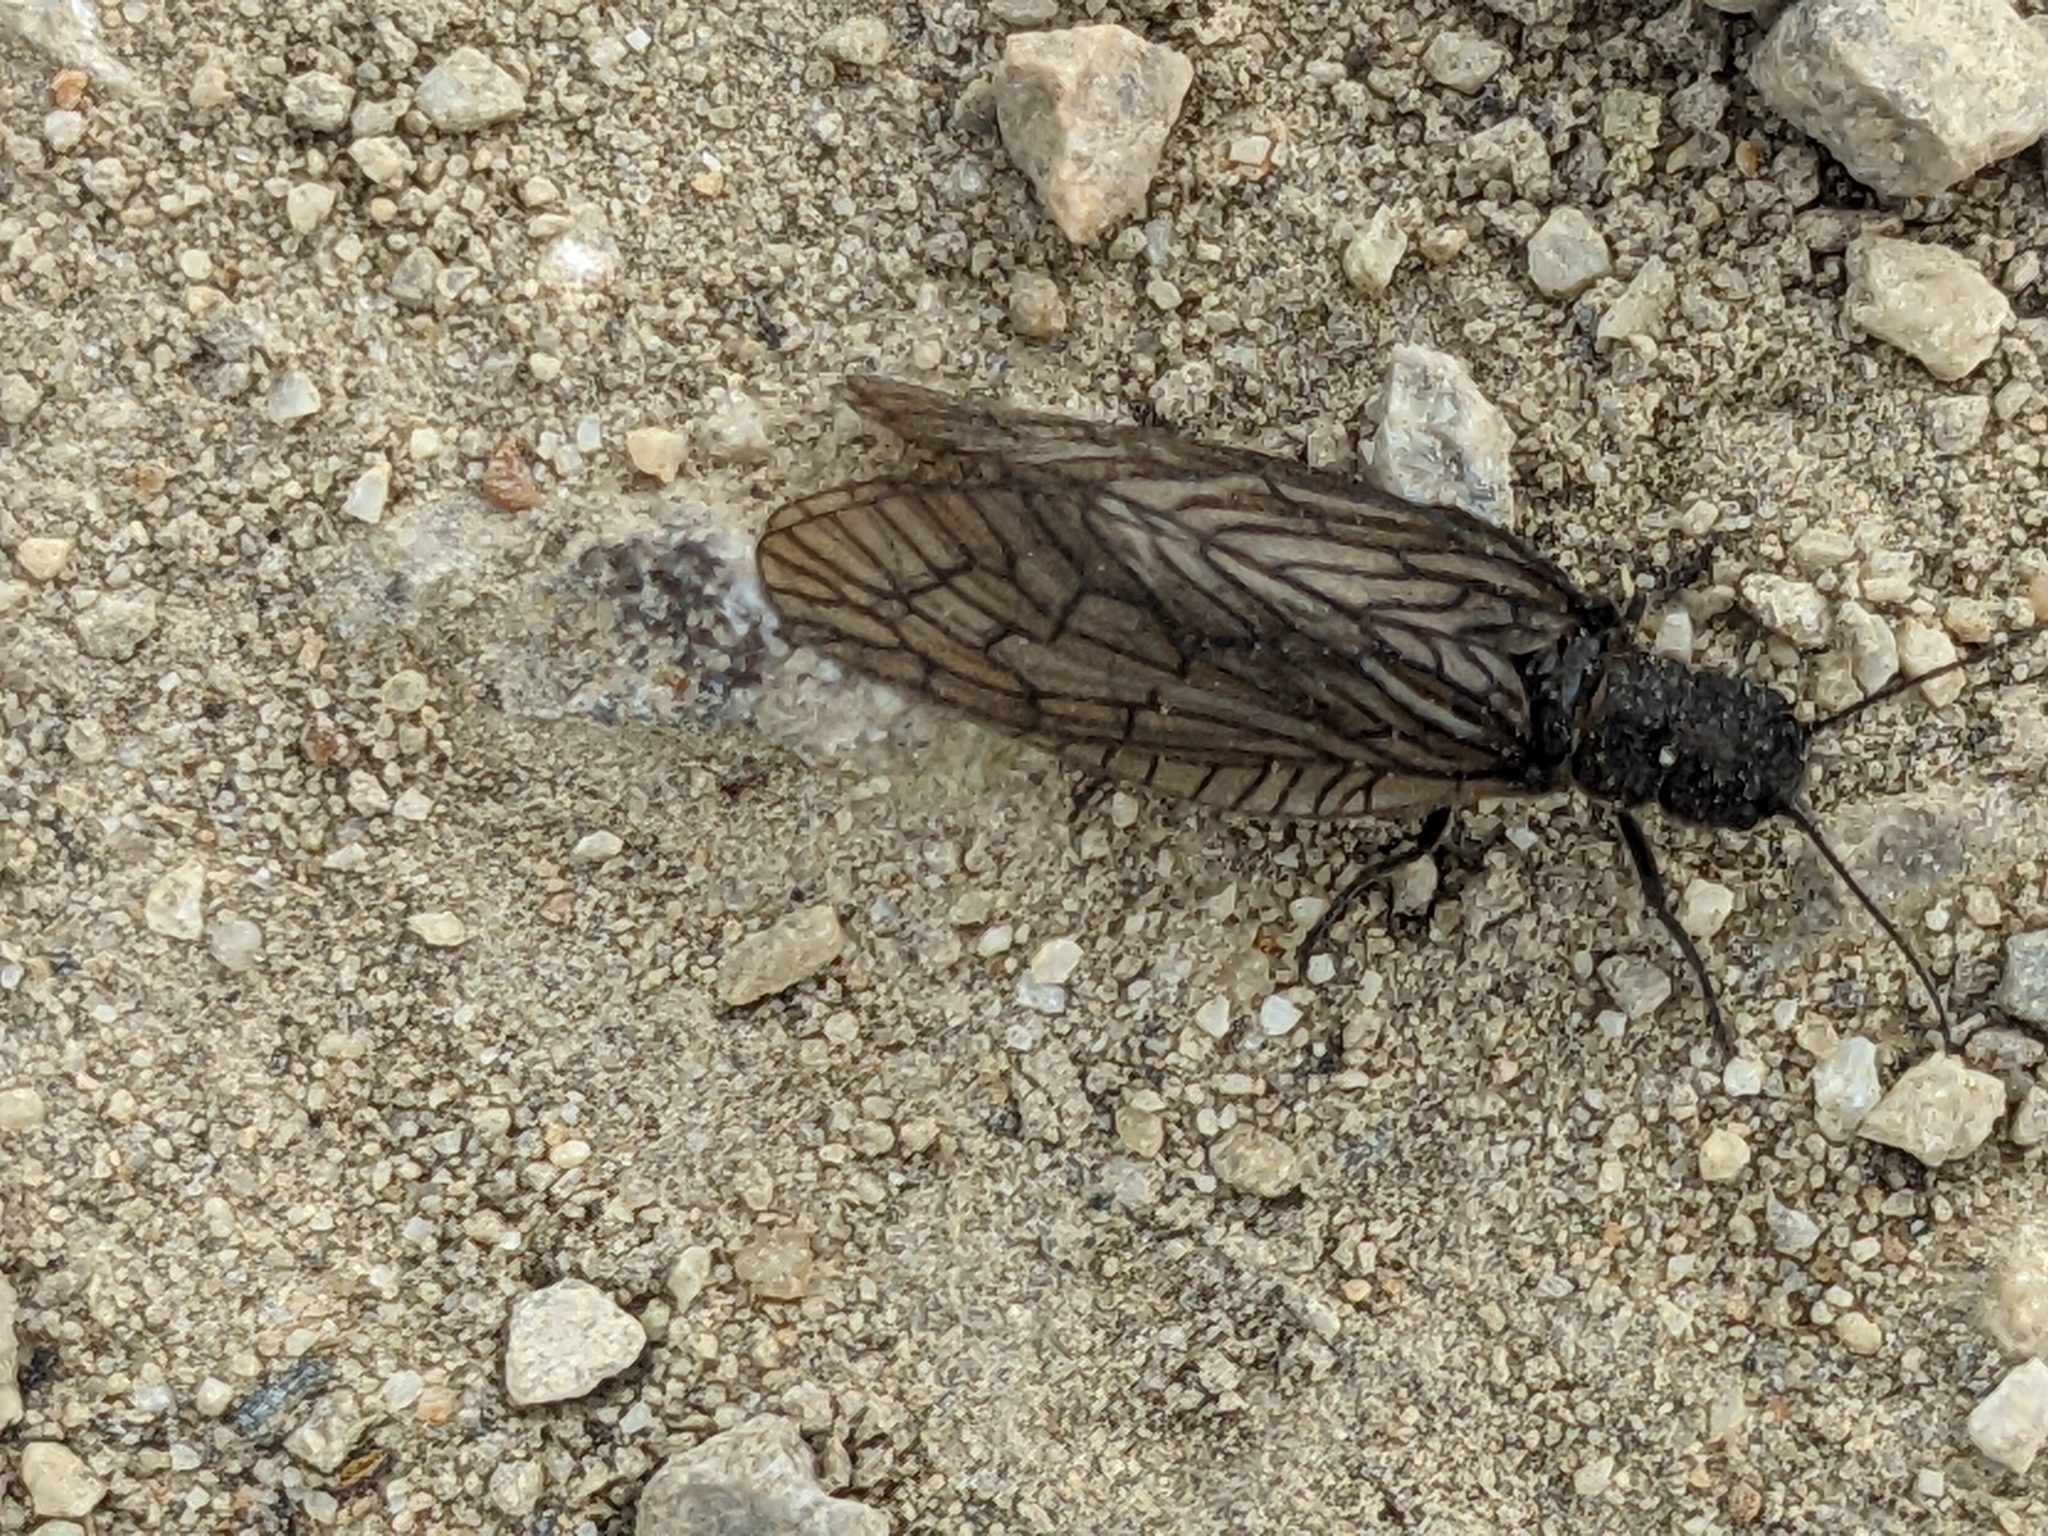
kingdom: Animalia
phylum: Arthropoda
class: Insecta
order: Megaloptera
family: Sialidae
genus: Sialis
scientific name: Sialis
